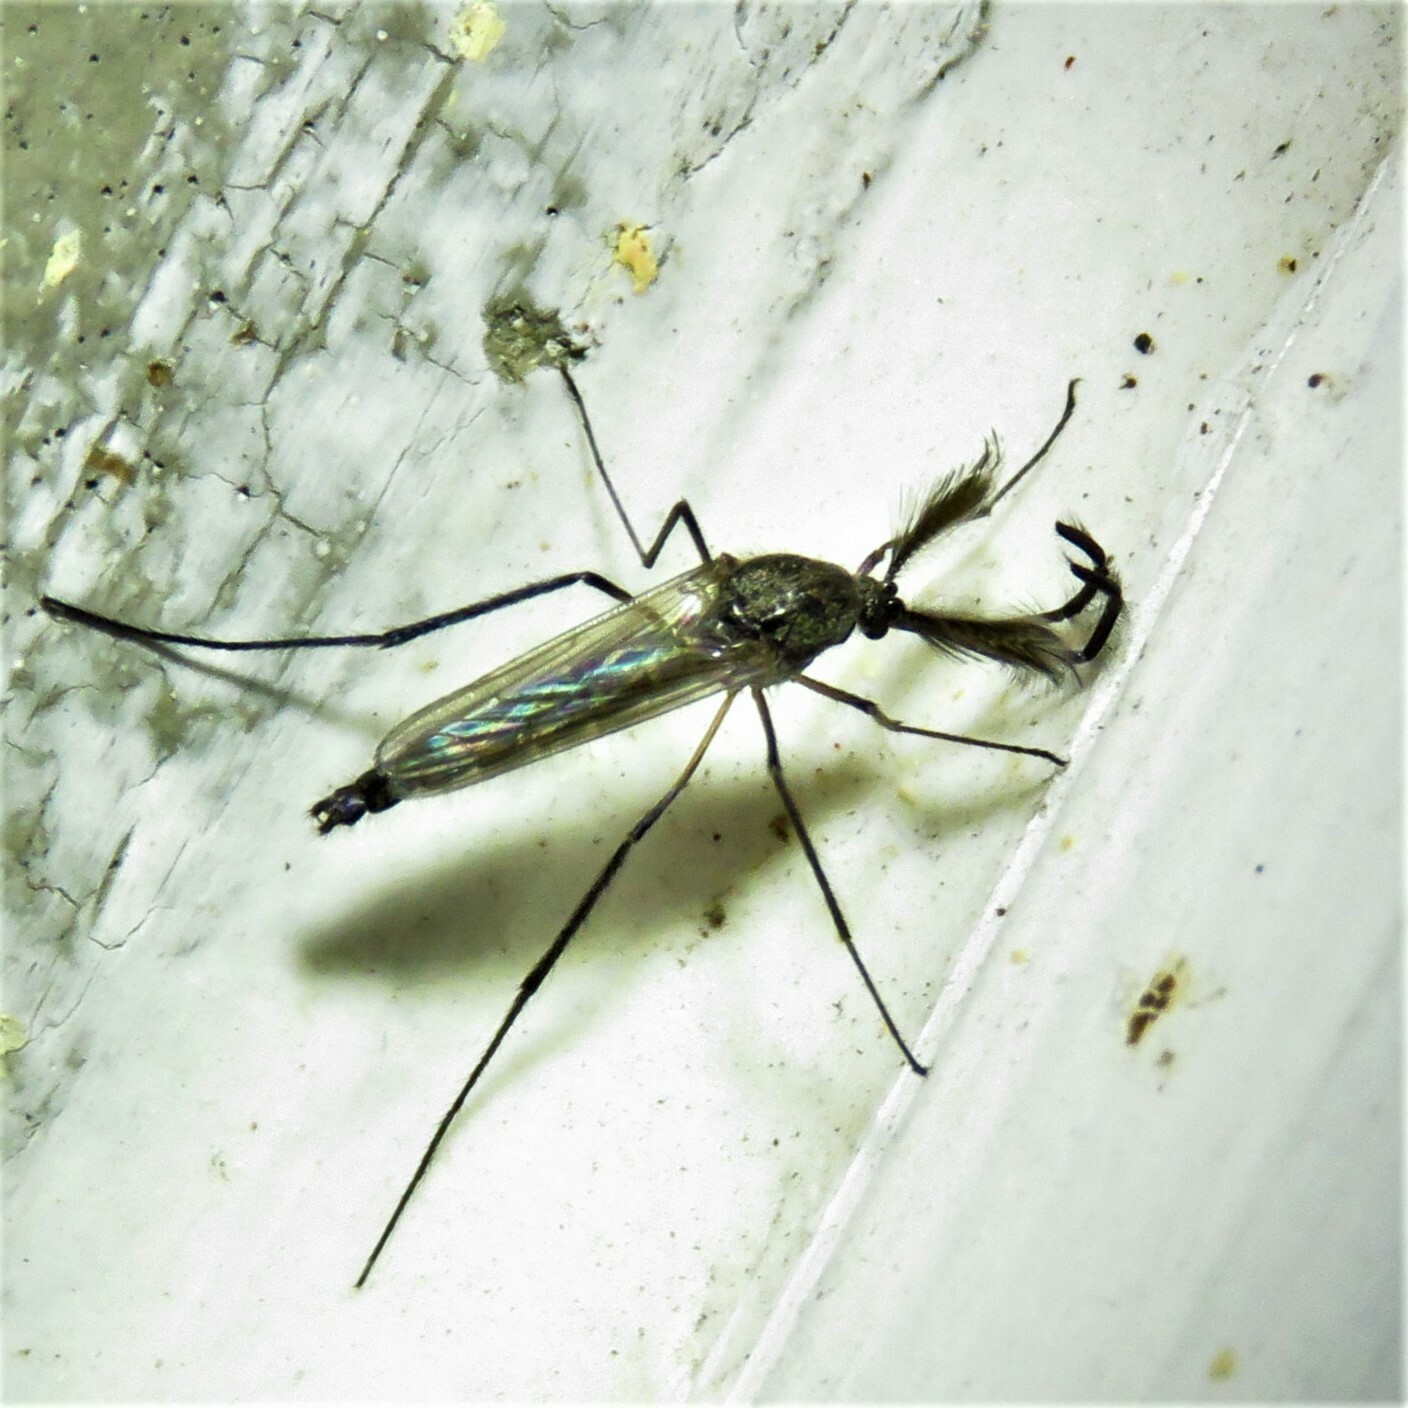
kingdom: Animalia
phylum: Arthropoda
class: Insecta
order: Diptera
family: Culicidae
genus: Psorophora
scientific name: Psorophora cyanescens
